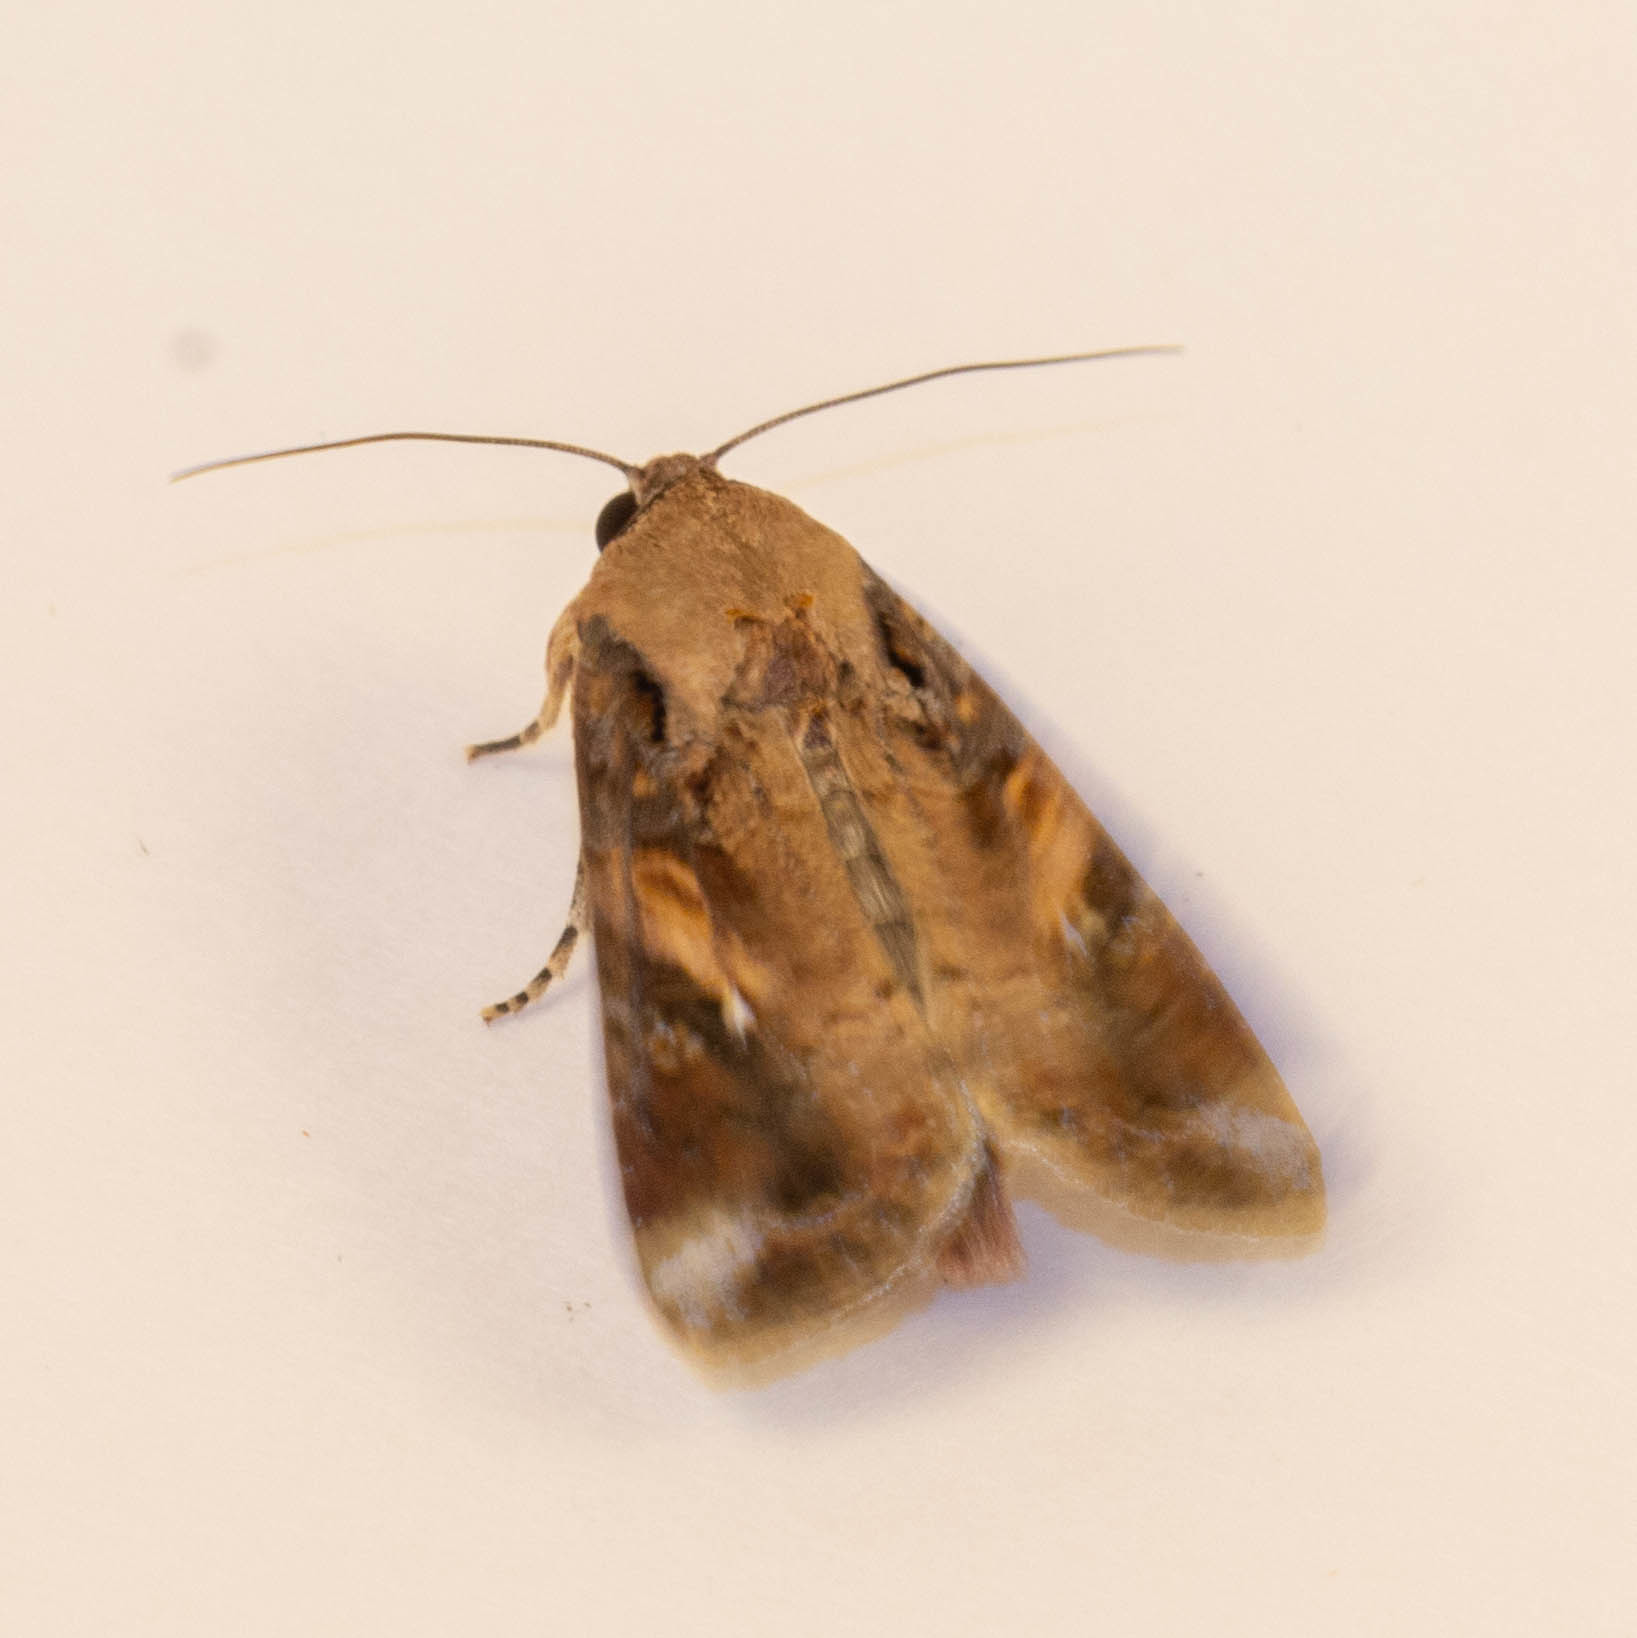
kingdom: Animalia
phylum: Arthropoda
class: Insecta
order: Lepidoptera
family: Noctuidae
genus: Spodoptera
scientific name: Spodoptera frugiperda
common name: Fall armyworm
